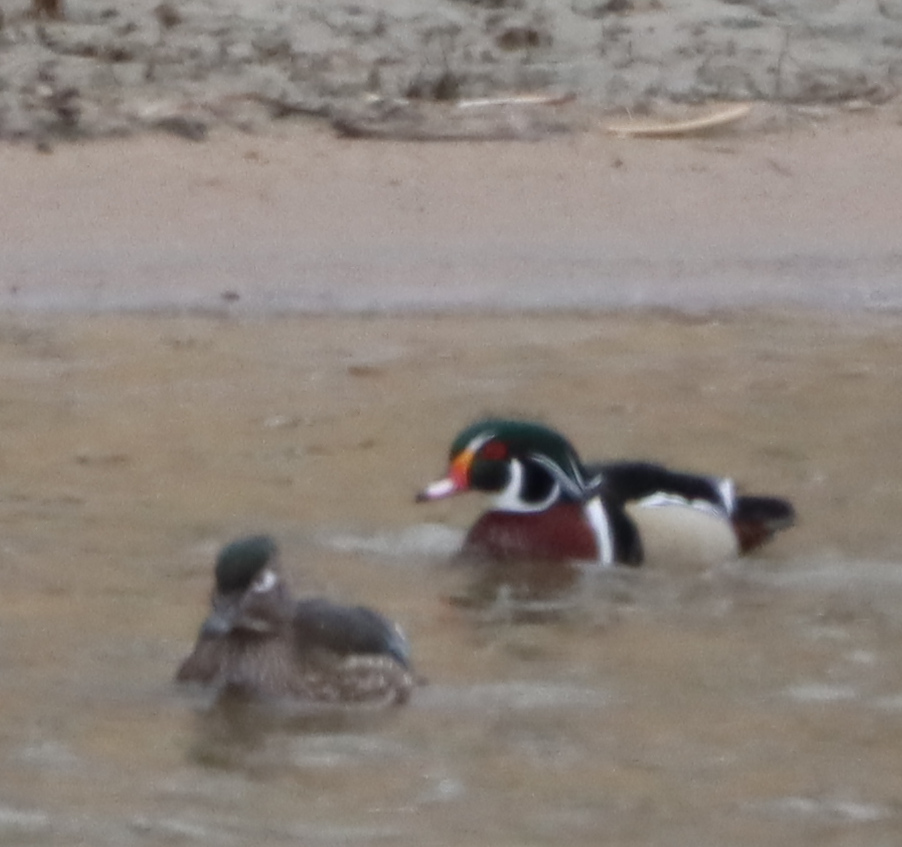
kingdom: Animalia
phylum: Chordata
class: Aves
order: Anseriformes
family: Anatidae
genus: Aix
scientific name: Aix sponsa
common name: Wood duck
